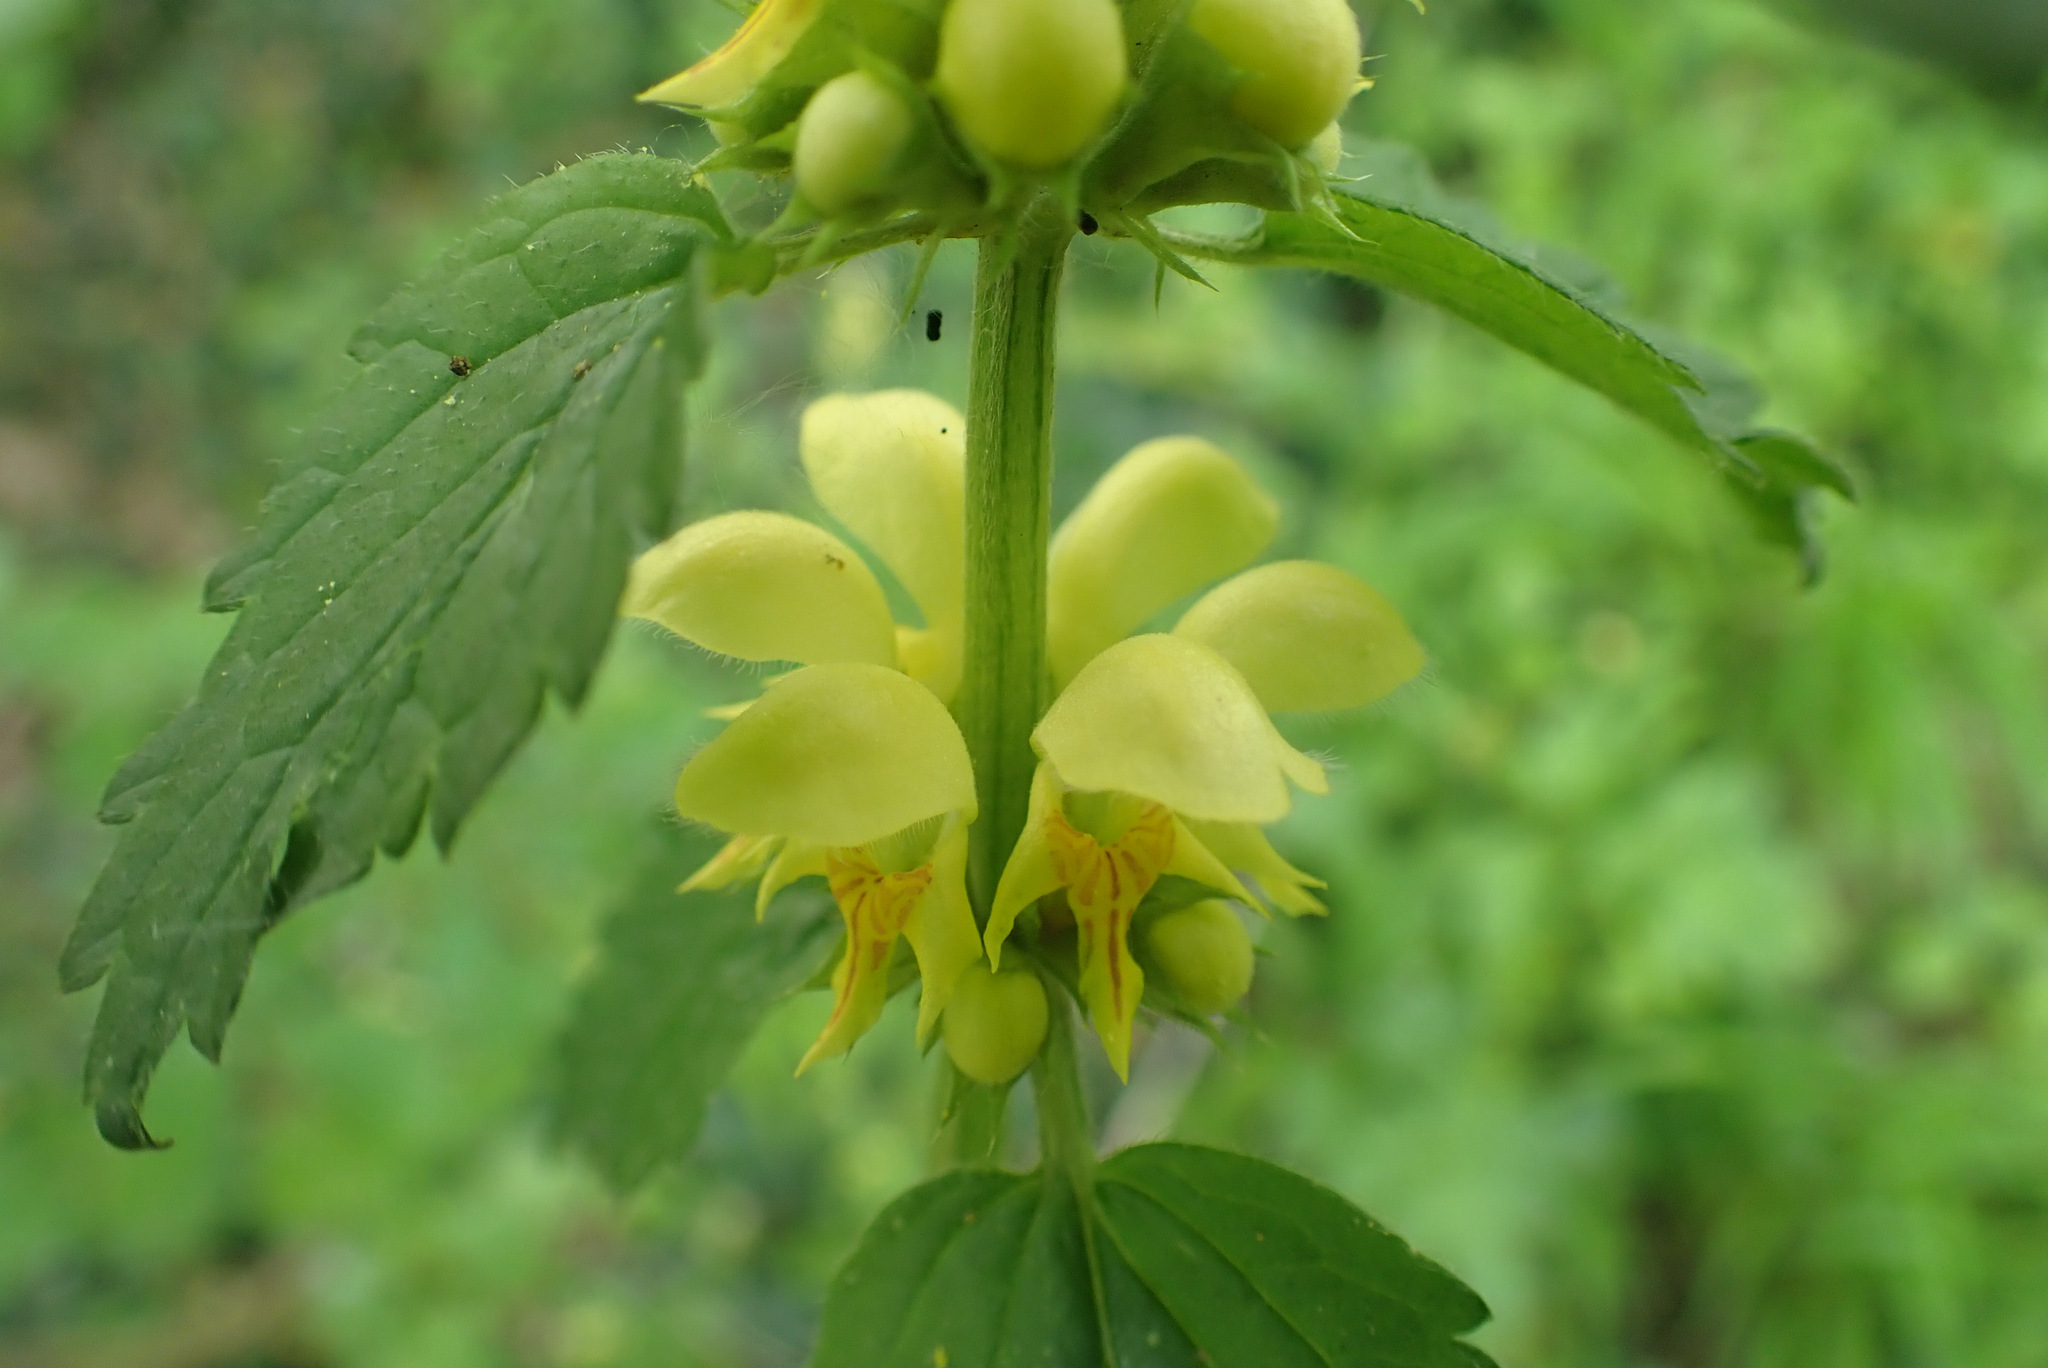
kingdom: Plantae
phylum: Tracheophyta
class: Magnoliopsida
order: Lamiales
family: Lamiaceae
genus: Lamium
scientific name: Lamium galeobdolon
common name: Yellow archangel
